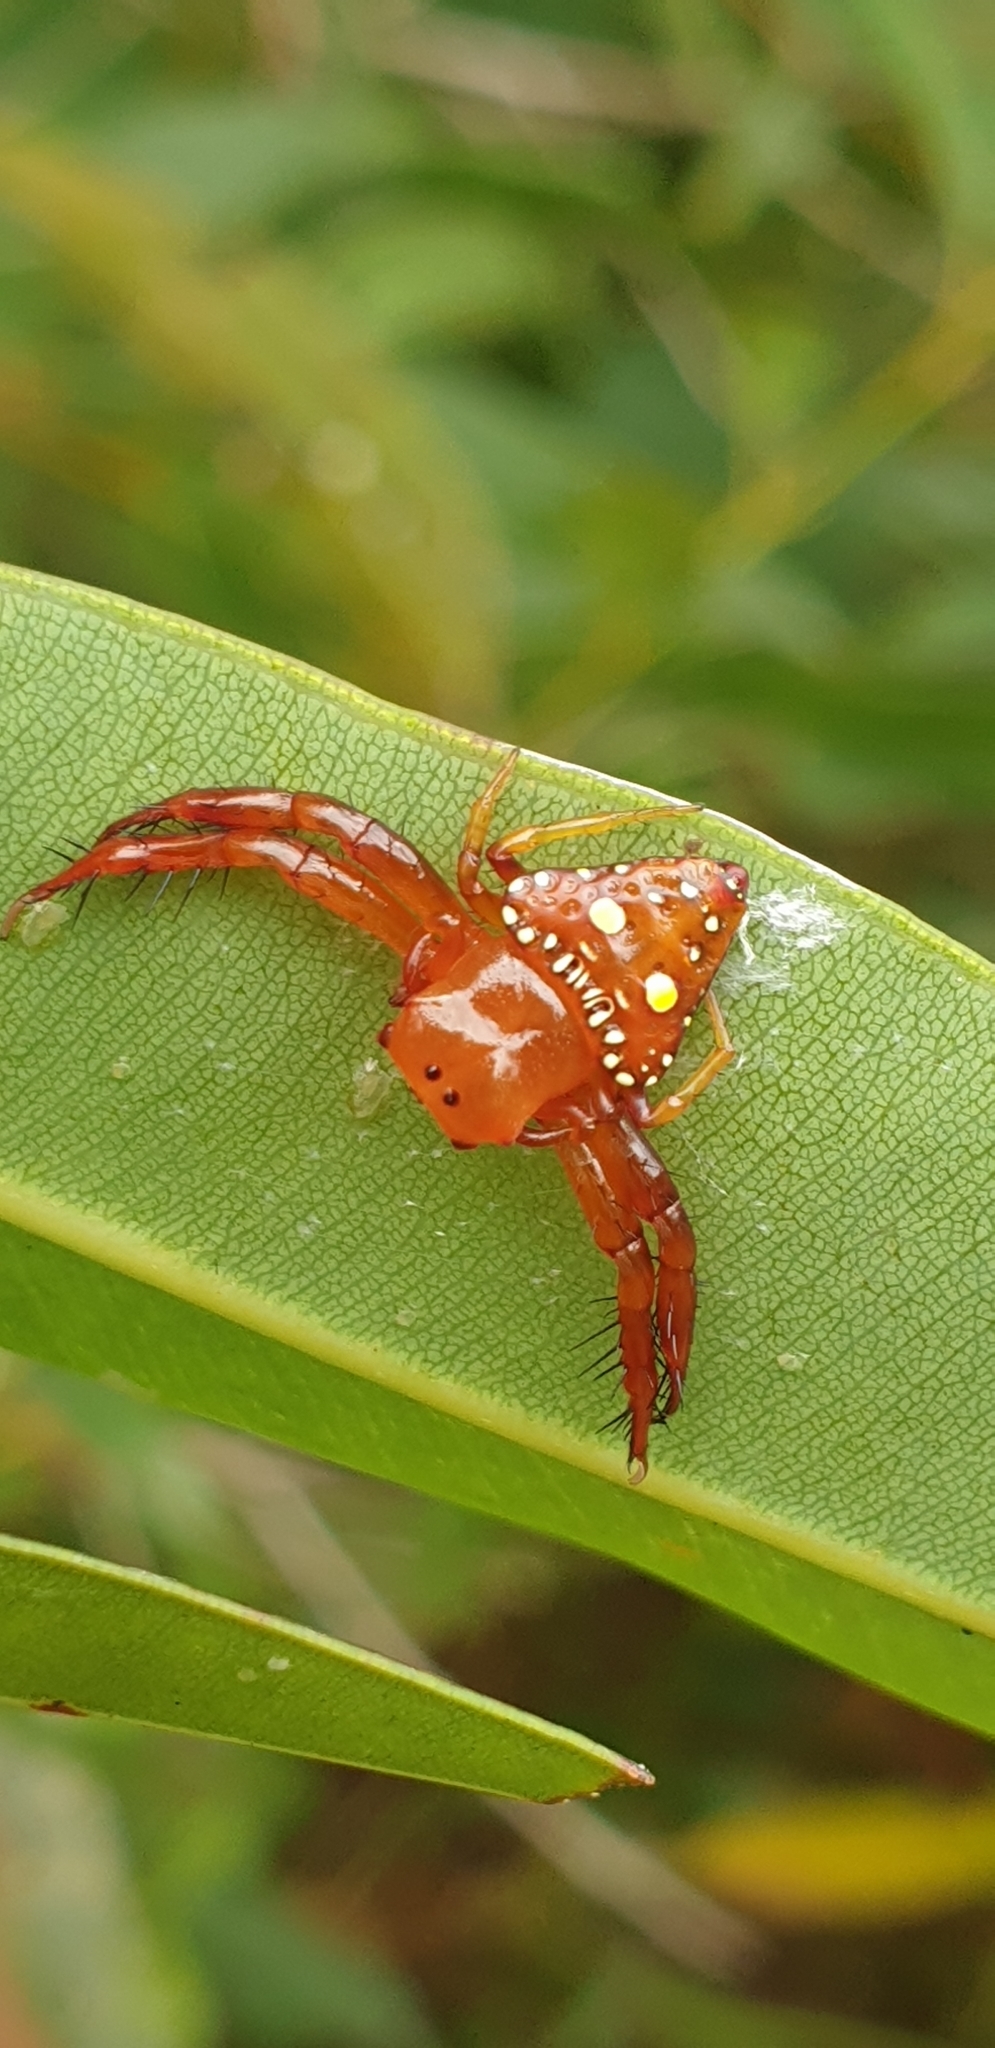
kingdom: Animalia
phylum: Arthropoda
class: Arachnida
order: Araneae
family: Arkyidae
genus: Arkys
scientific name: Arkys lancearius
